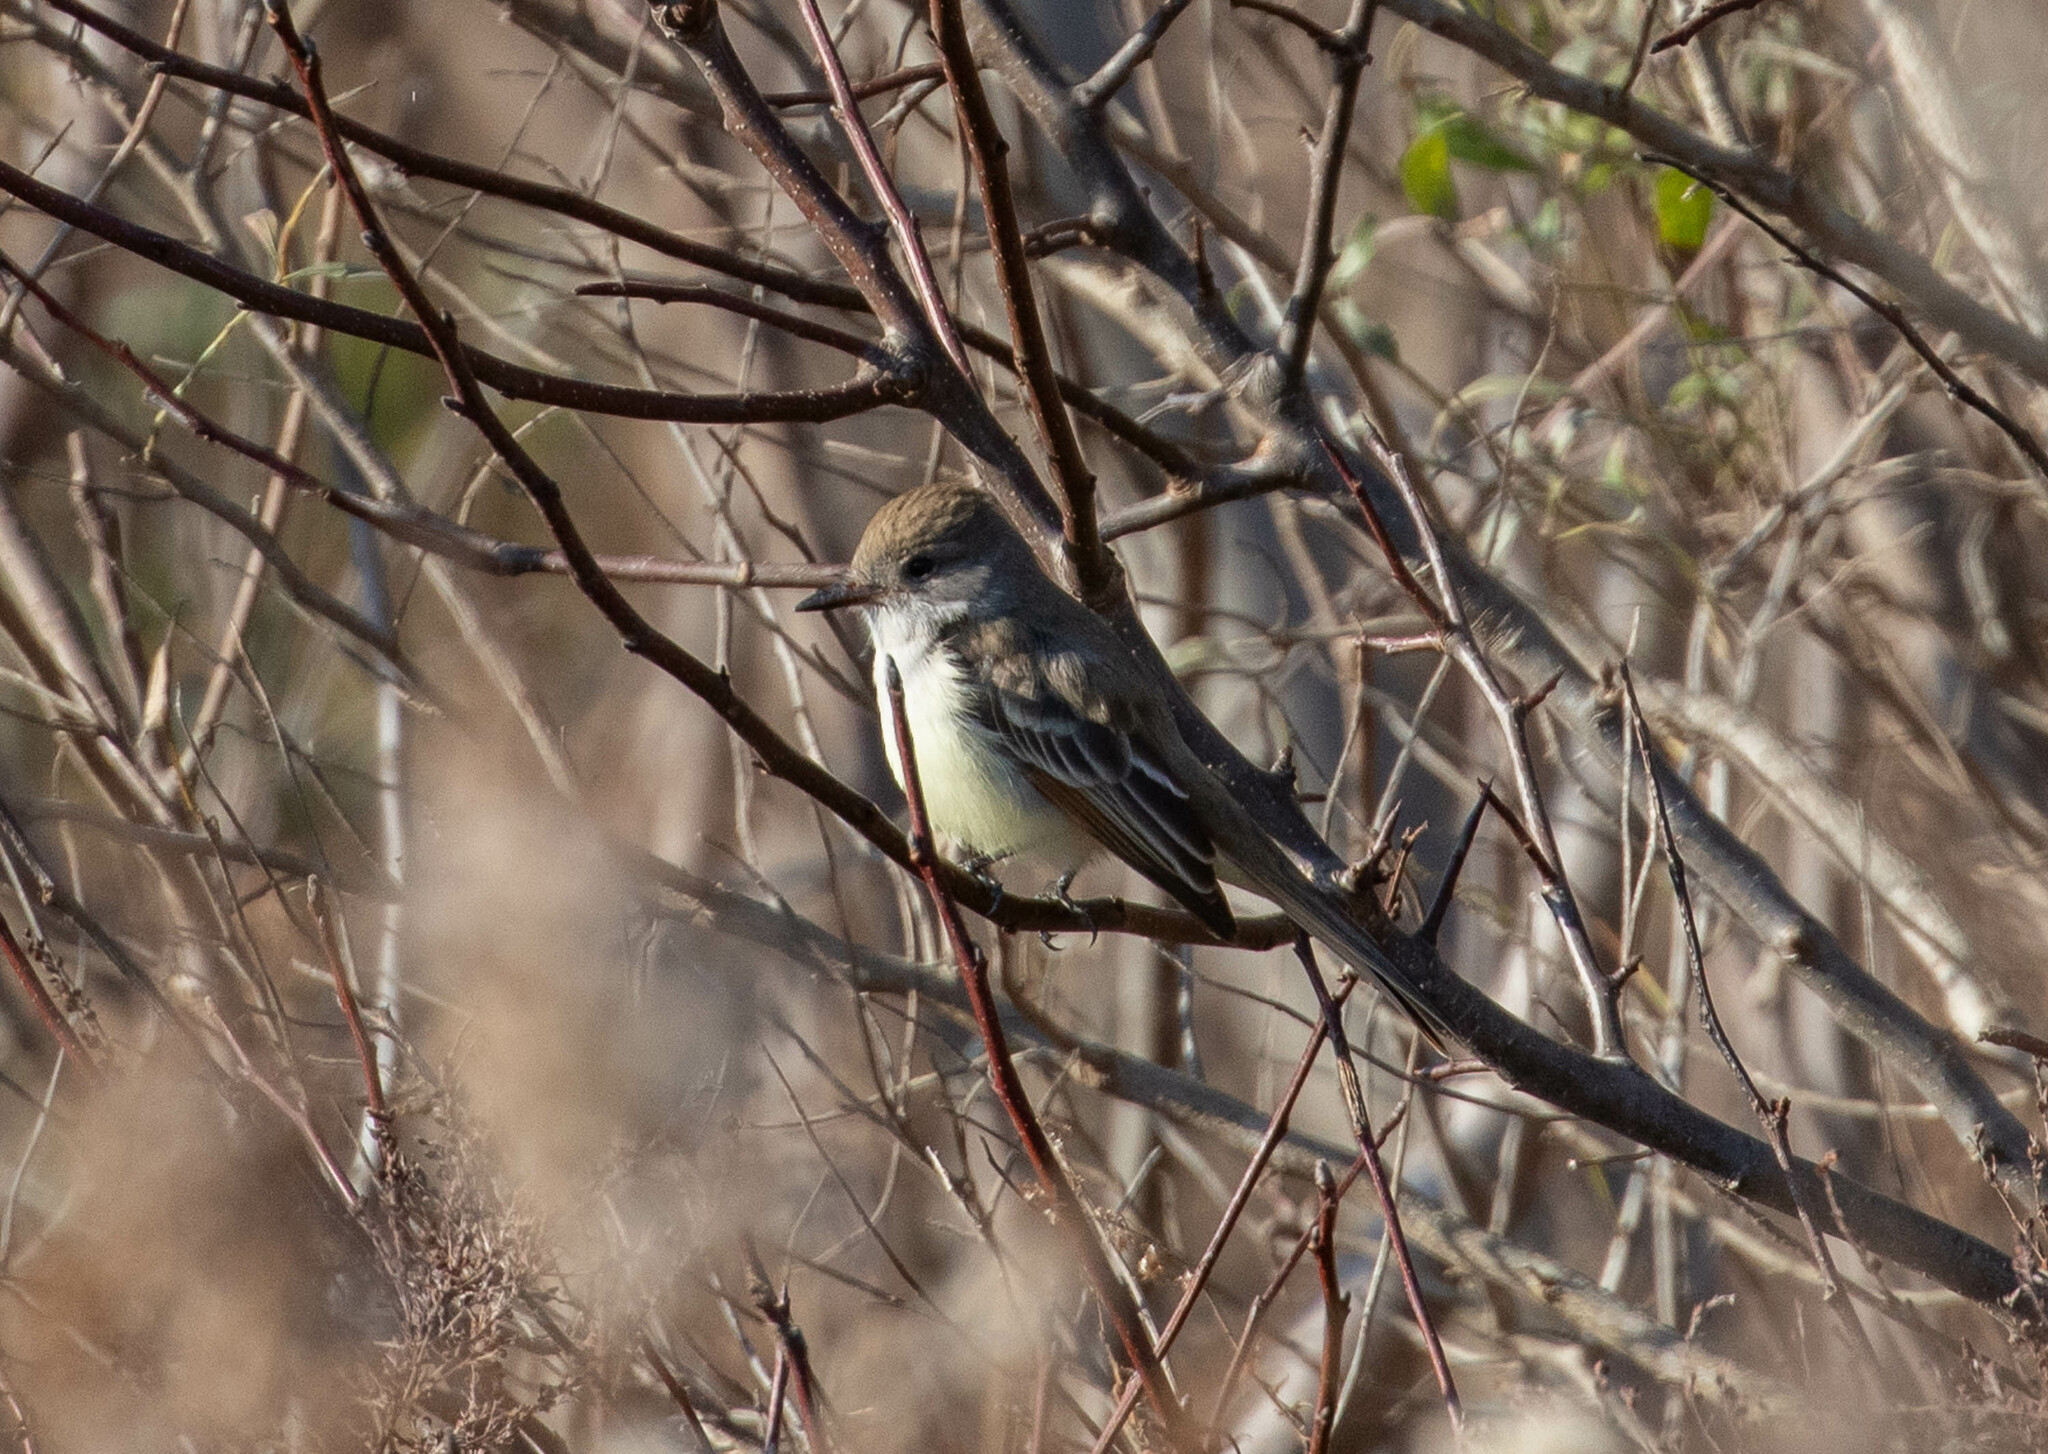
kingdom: Animalia
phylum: Chordata
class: Aves
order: Passeriformes
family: Tyrannidae
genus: Myiarchus
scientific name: Myiarchus cinerascens
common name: Ash-throated flycatcher
